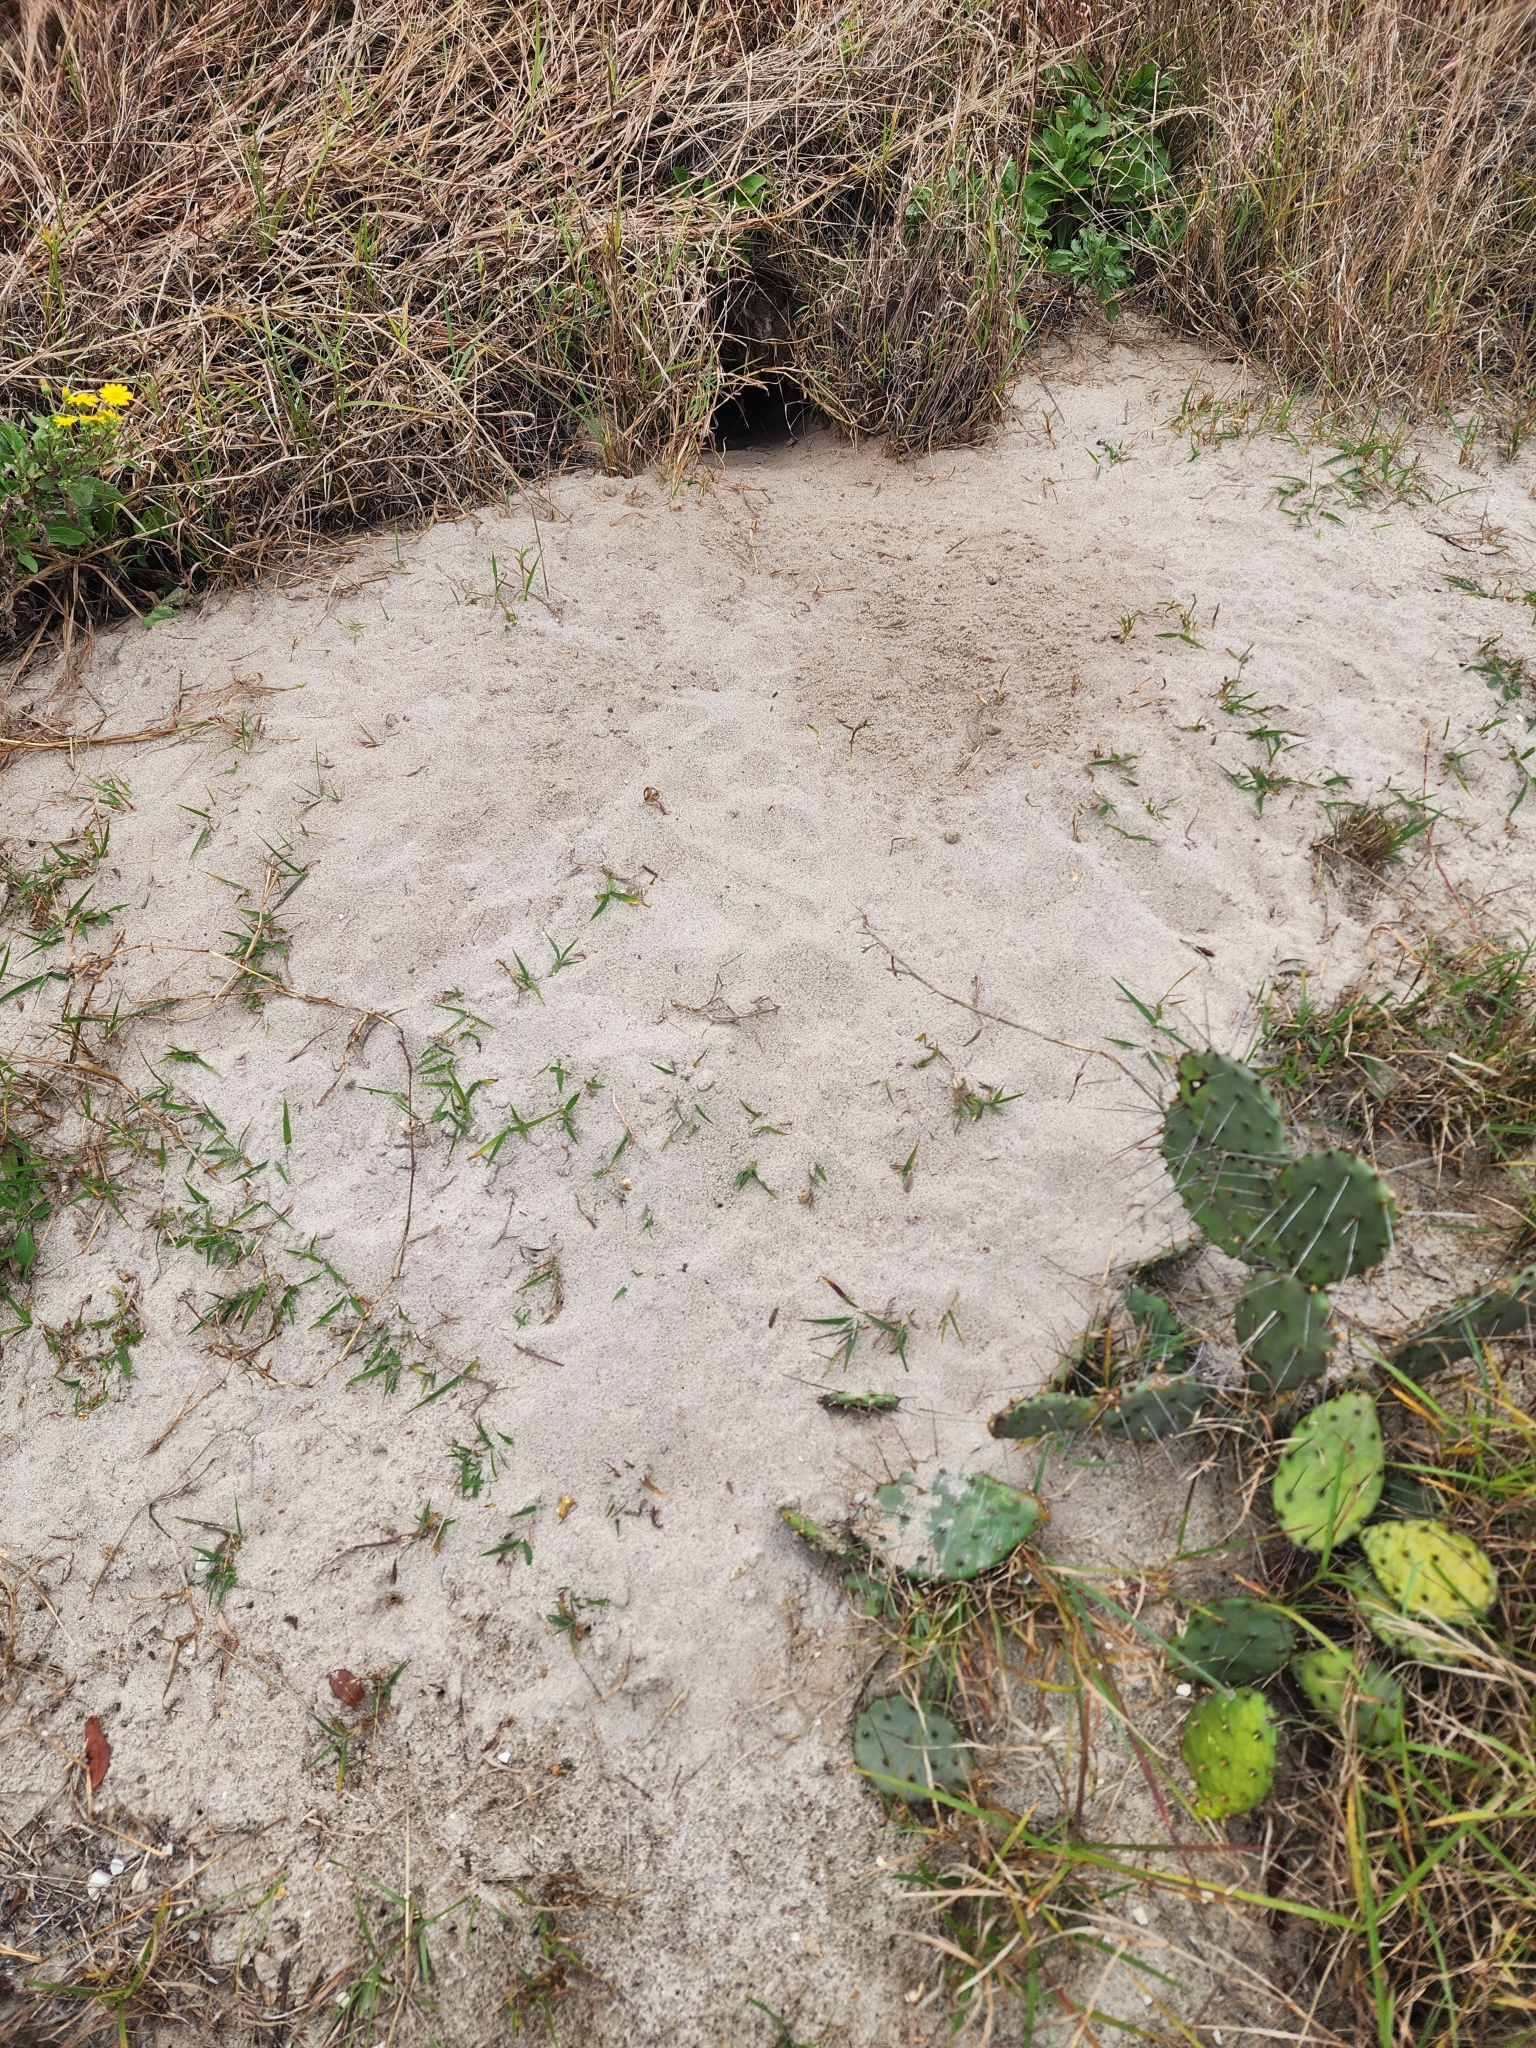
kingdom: Animalia
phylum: Chordata
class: Testudines
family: Testudinidae
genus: Gopherus
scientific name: Gopherus polyphemus
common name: Florida gopher tortoise
